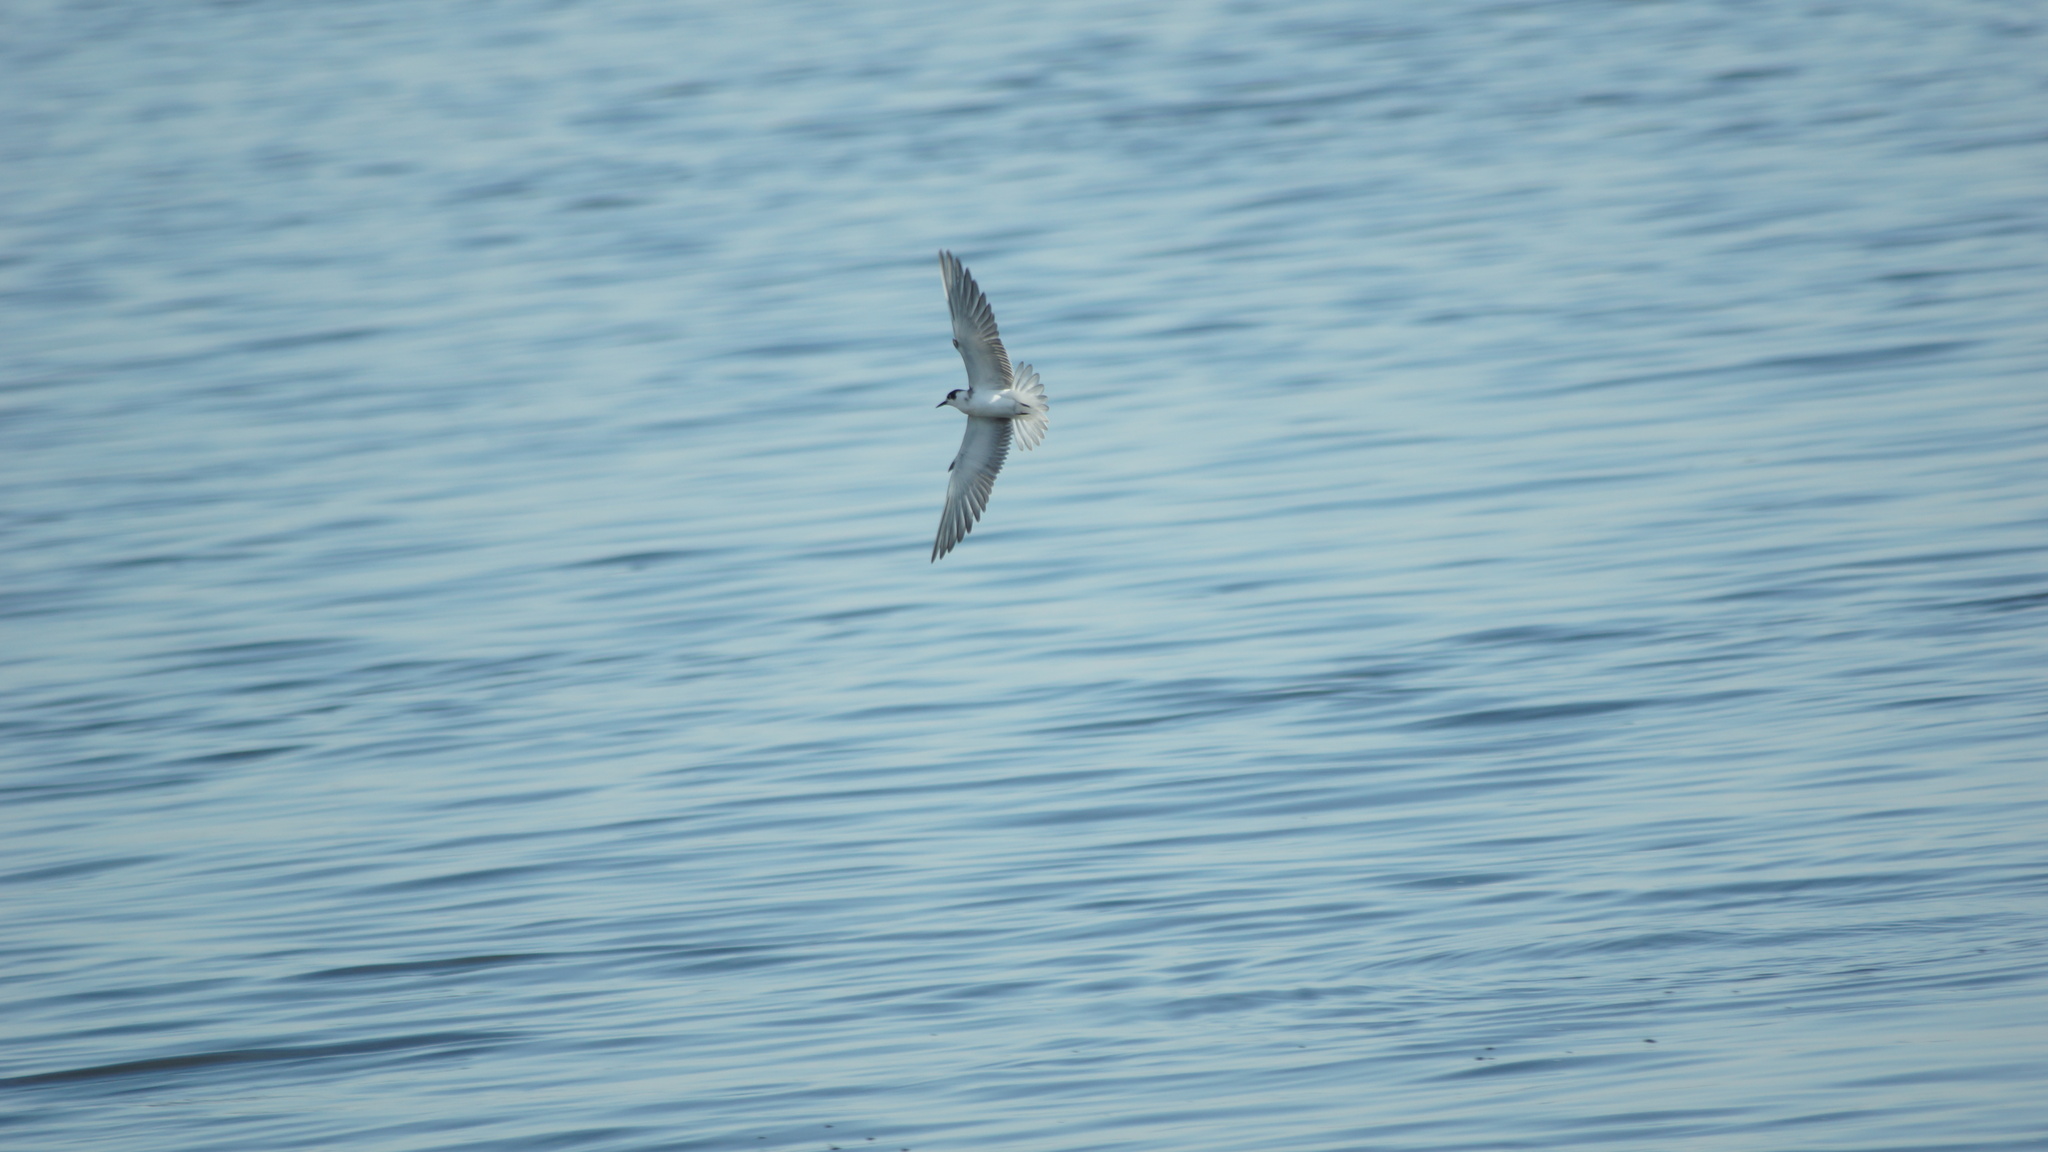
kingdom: Animalia
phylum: Chordata
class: Aves
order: Charadriiformes
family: Laridae
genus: Chlidonias
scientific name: Chlidonias niger
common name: Black tern
